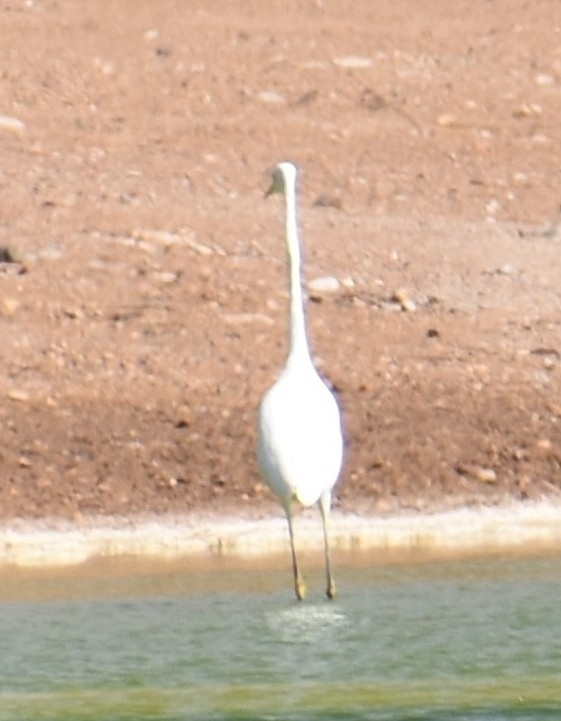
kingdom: Animalia
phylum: Chordata
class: Aves
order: Pelecaniformes
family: Ardeidae
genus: Ardea
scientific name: Ardea alba
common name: Great egret
